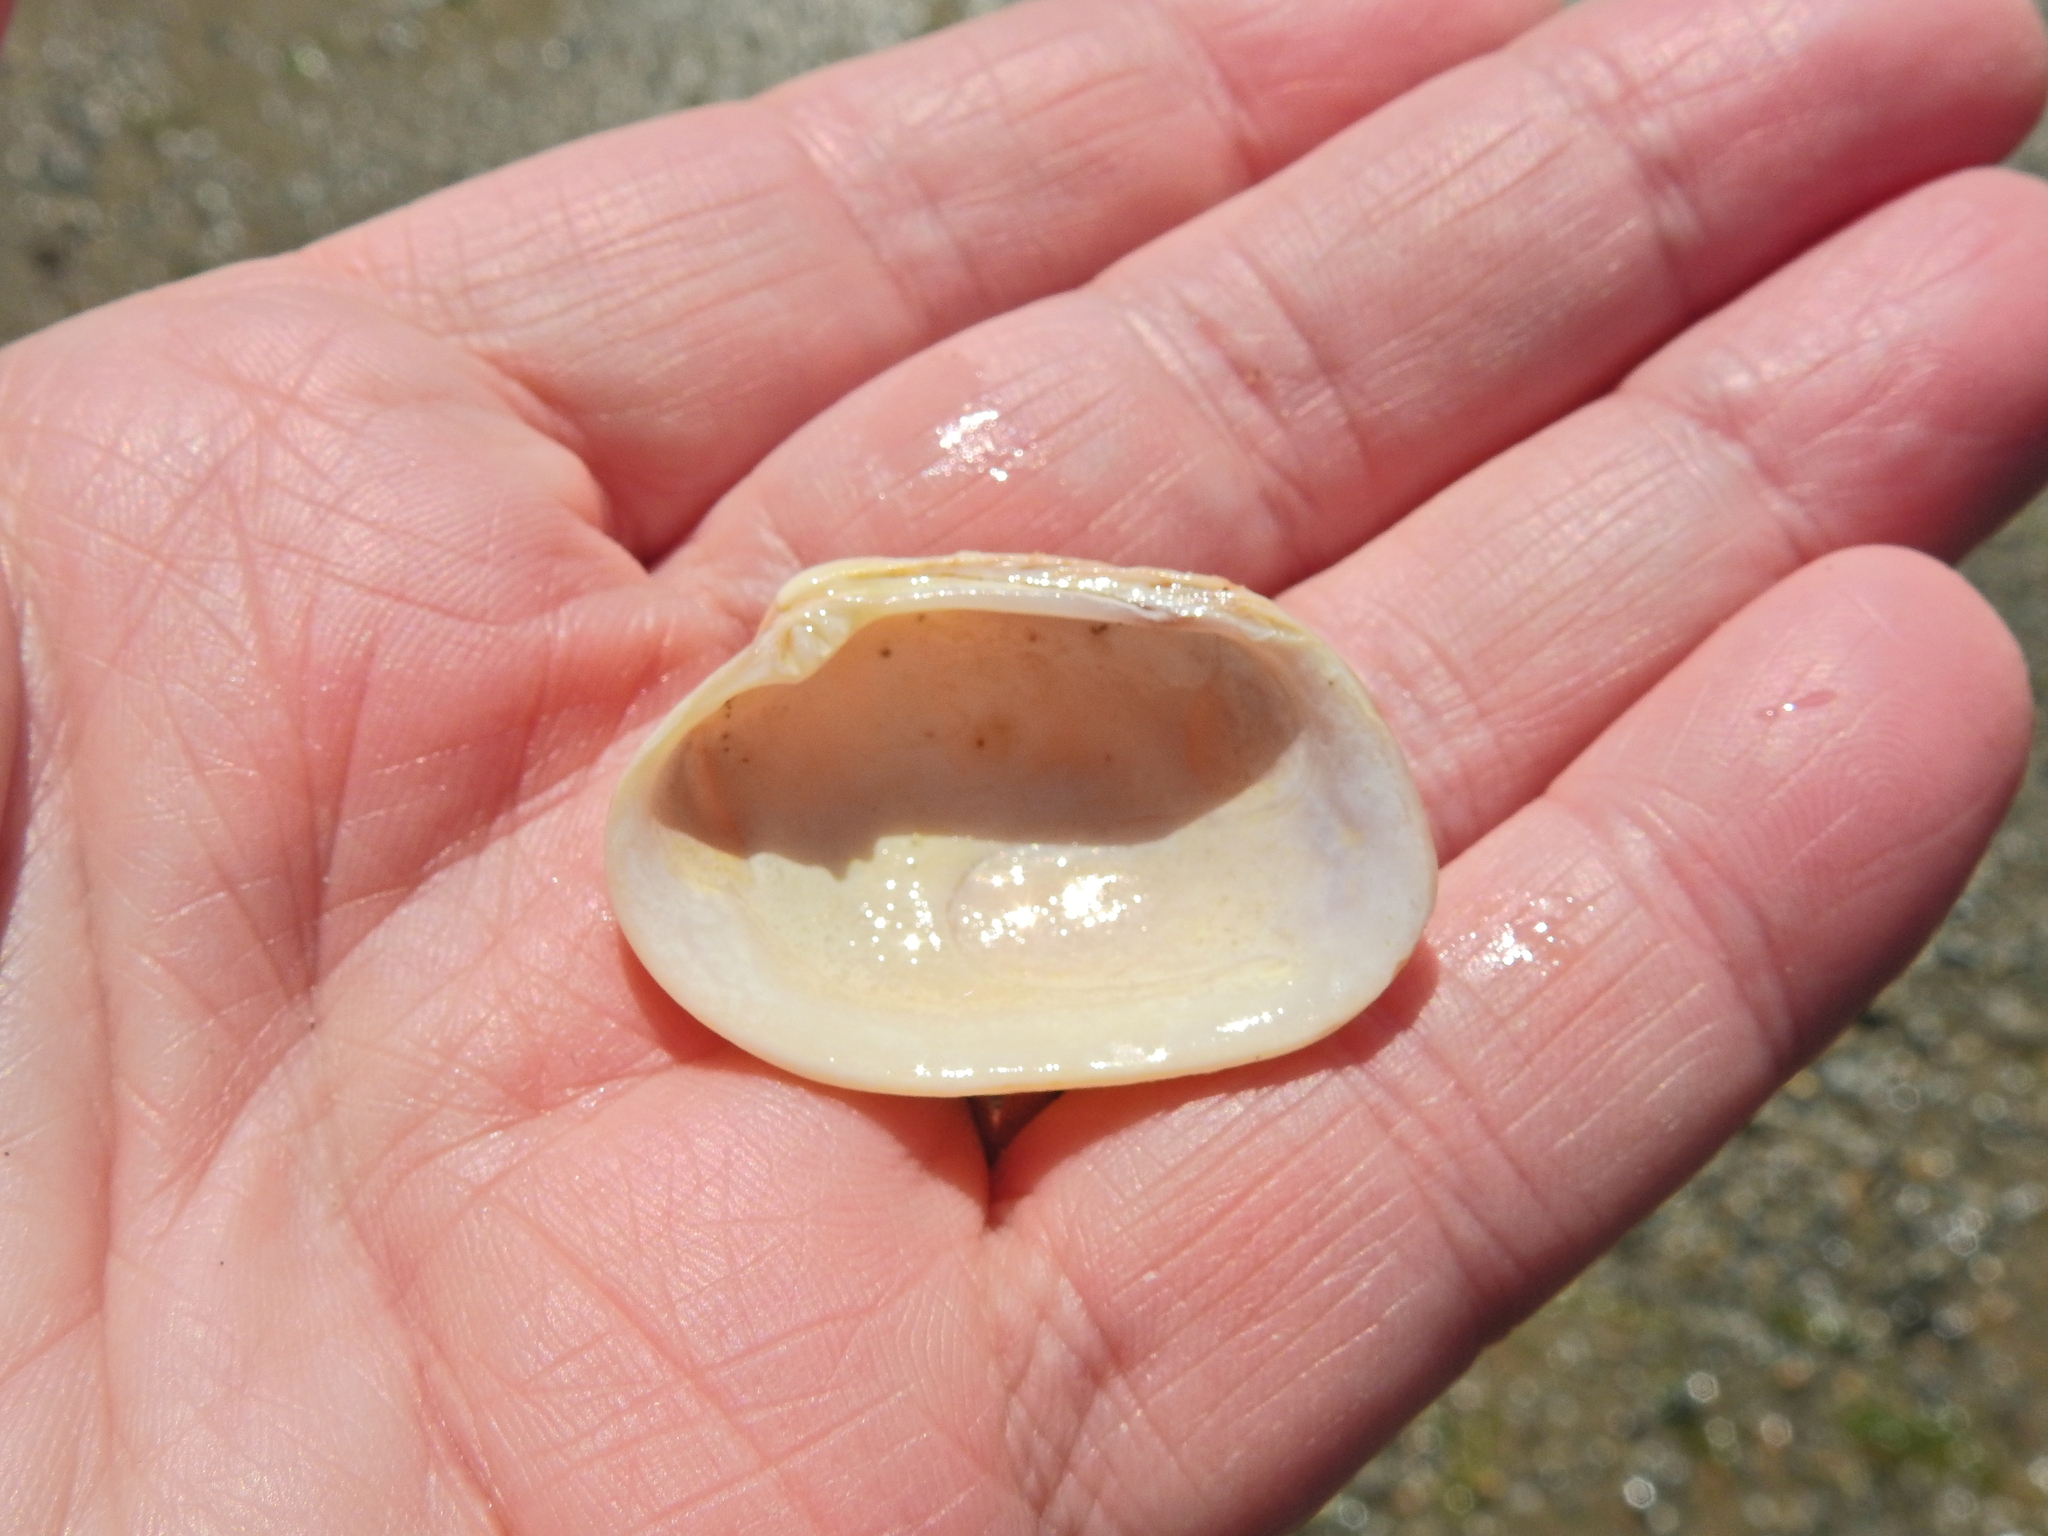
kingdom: Animalia
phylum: Mollusca
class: Bivalvia
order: Venerida
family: Veneridae
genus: Venerupis
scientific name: Venerupis corrugata
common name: Pullet carpet shell
